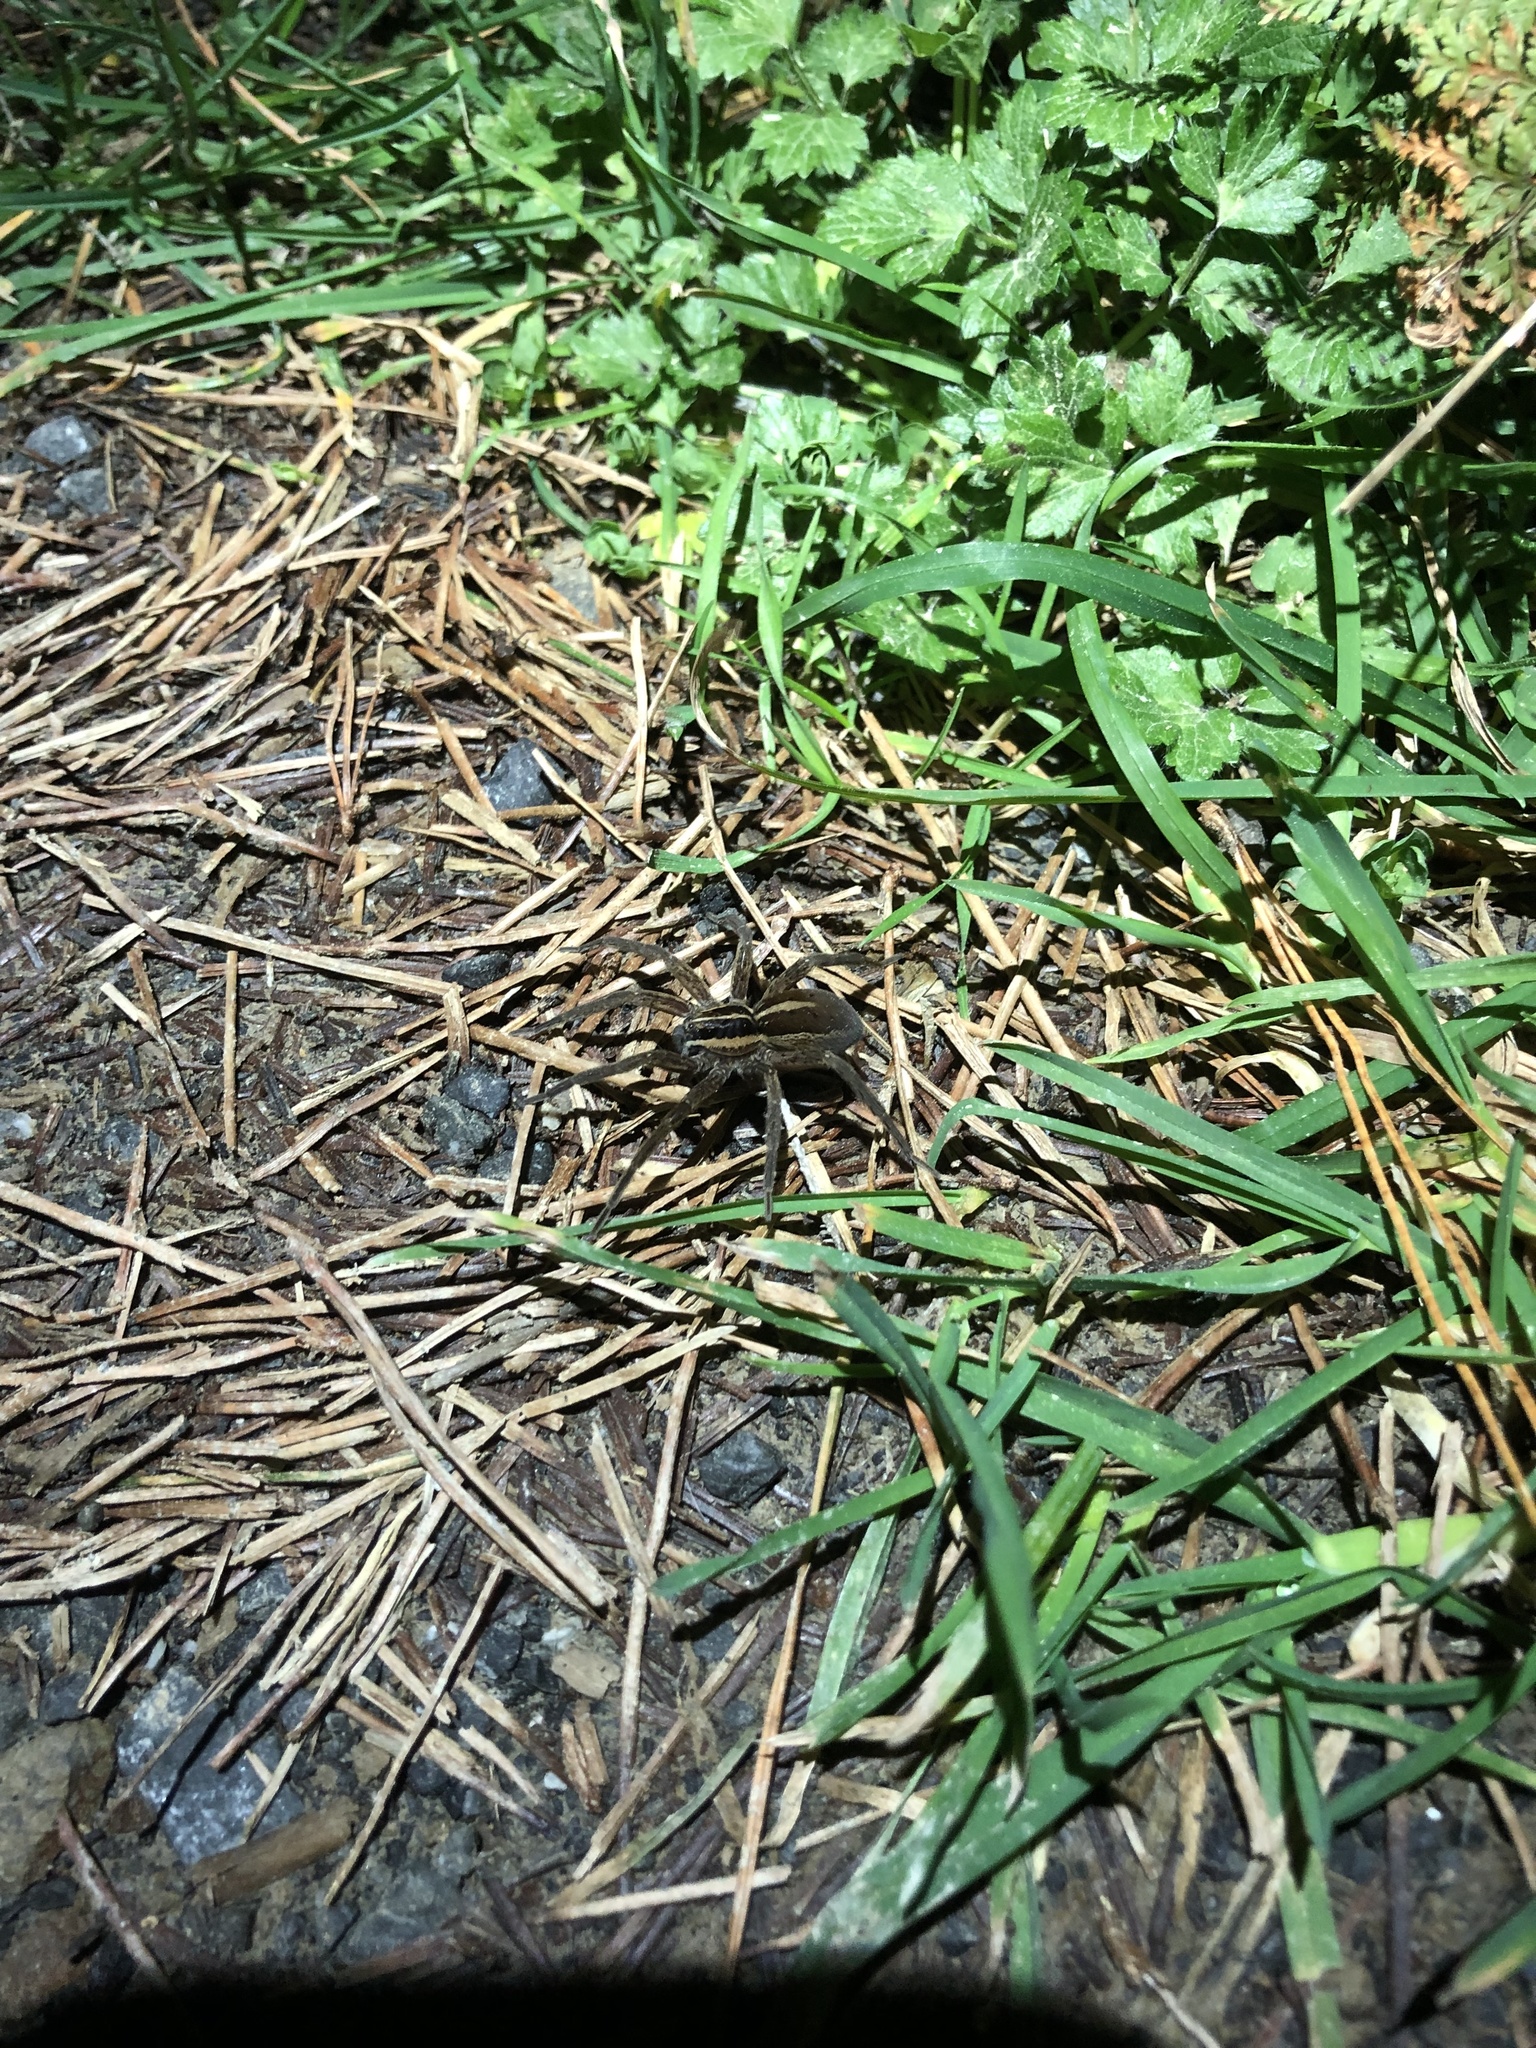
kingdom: Animalia
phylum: Arthropoda
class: Arachnida
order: Araneae
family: Pisauridae
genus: Dolomedes
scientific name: Dolomedes minor
